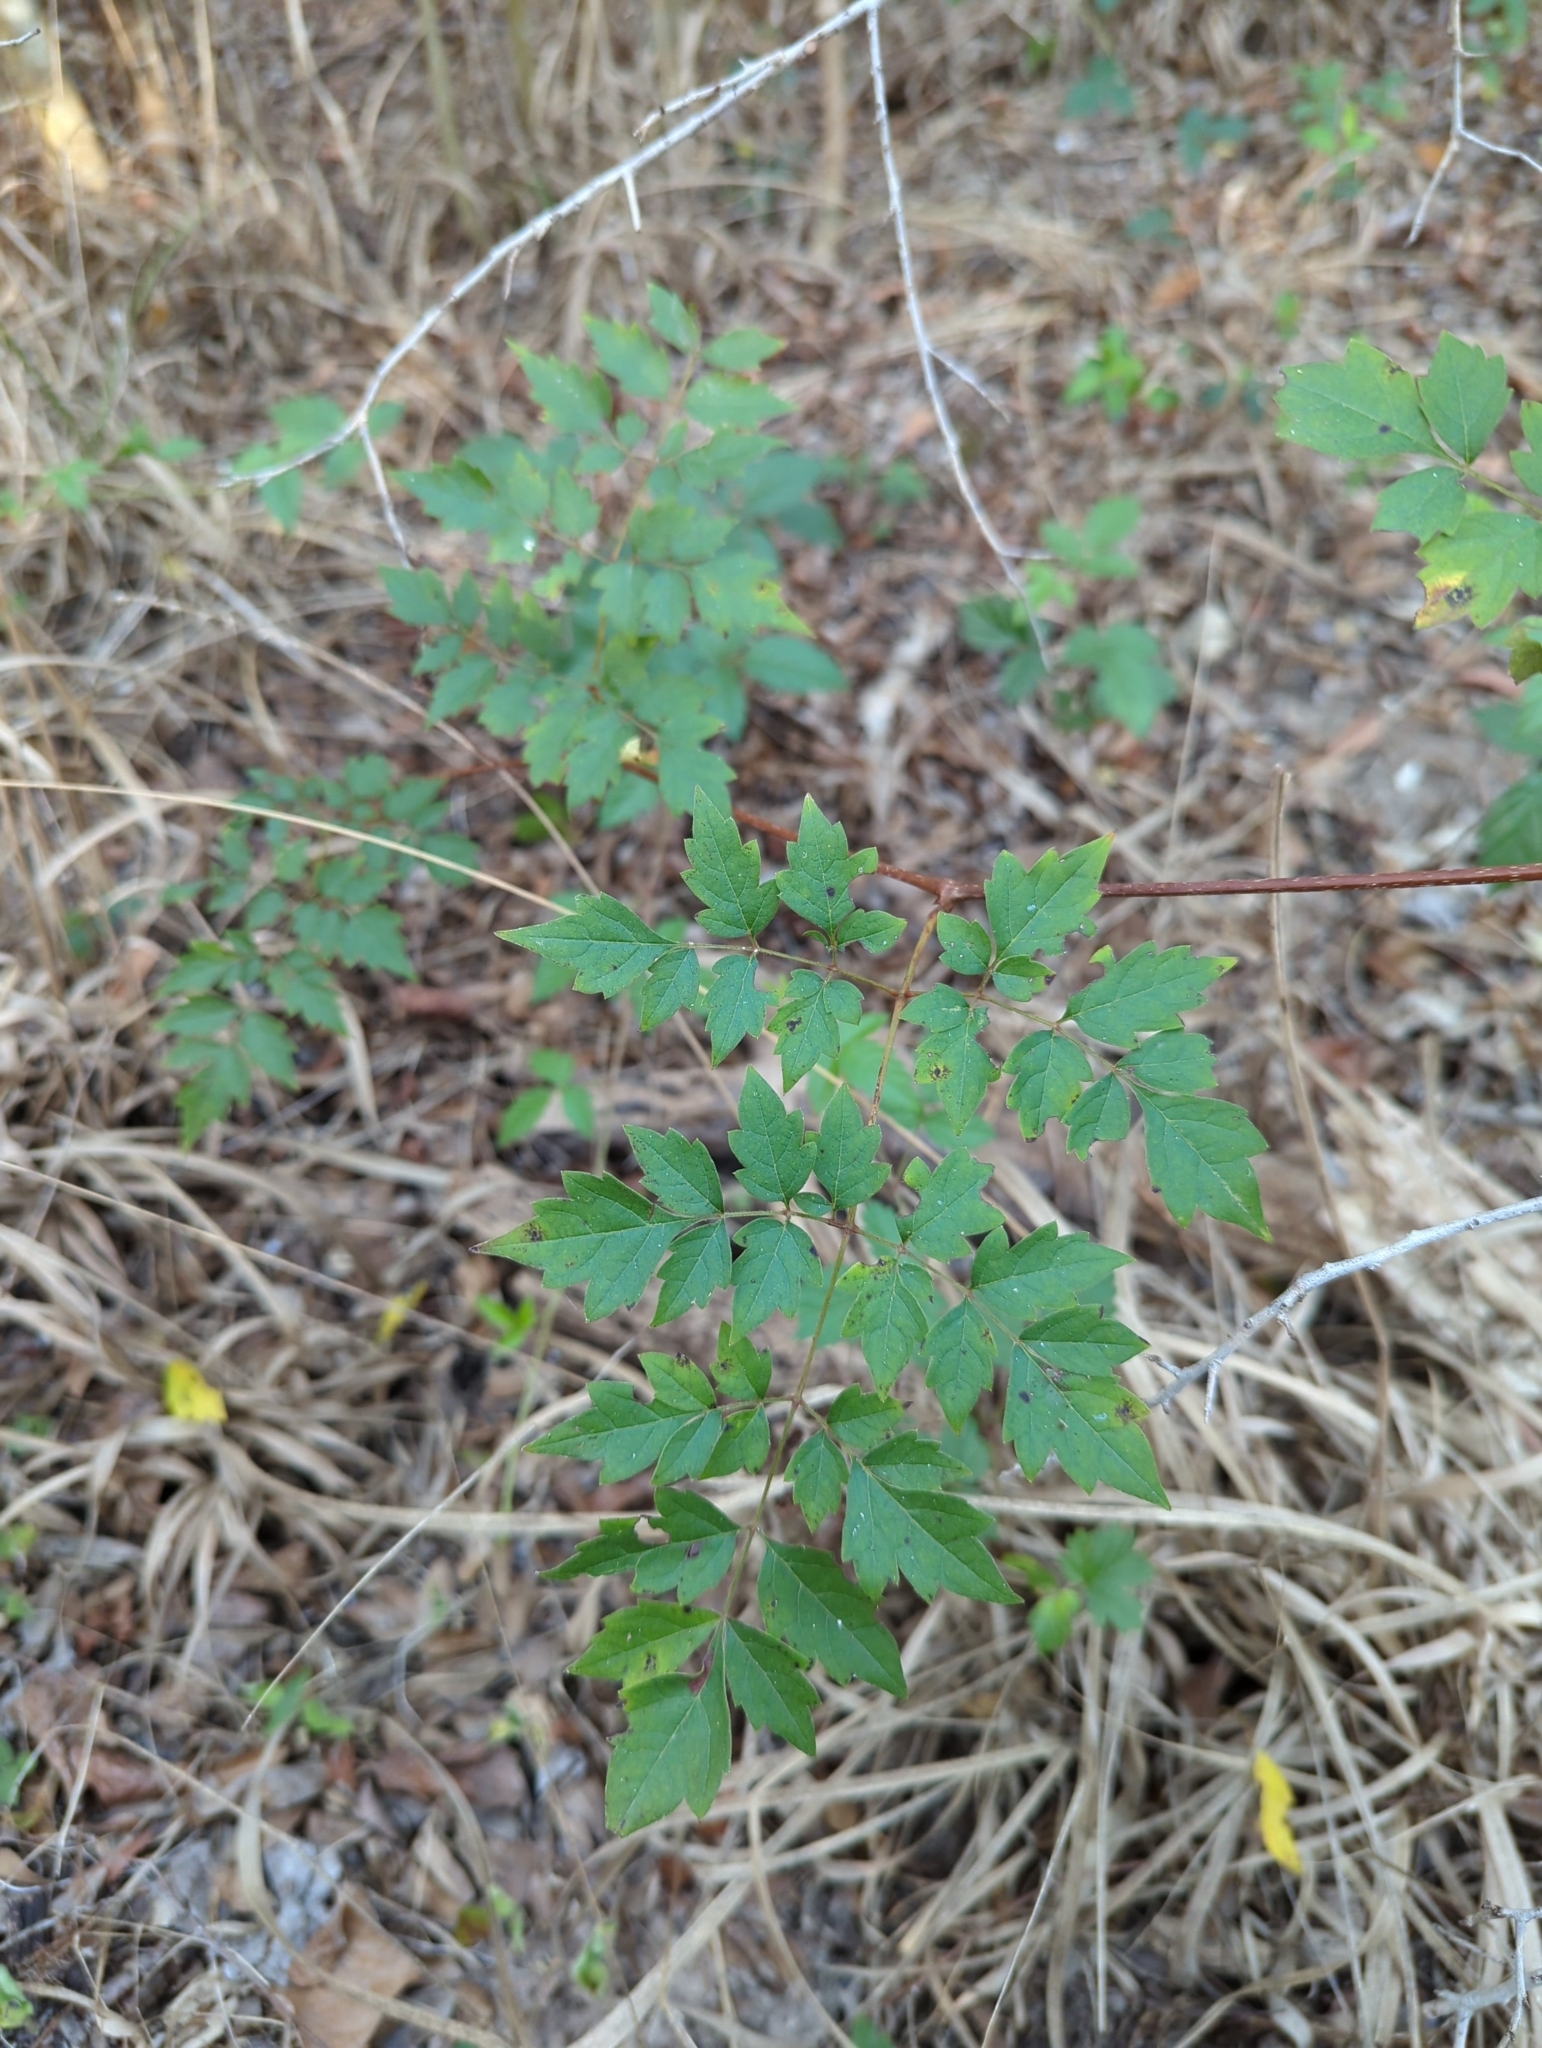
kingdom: Plantae
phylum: Tracheophyta
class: Magnoliopsida
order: Vitales
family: Vitaceae
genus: Nekemias
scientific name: Nekemias arborea
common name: Peppervine
